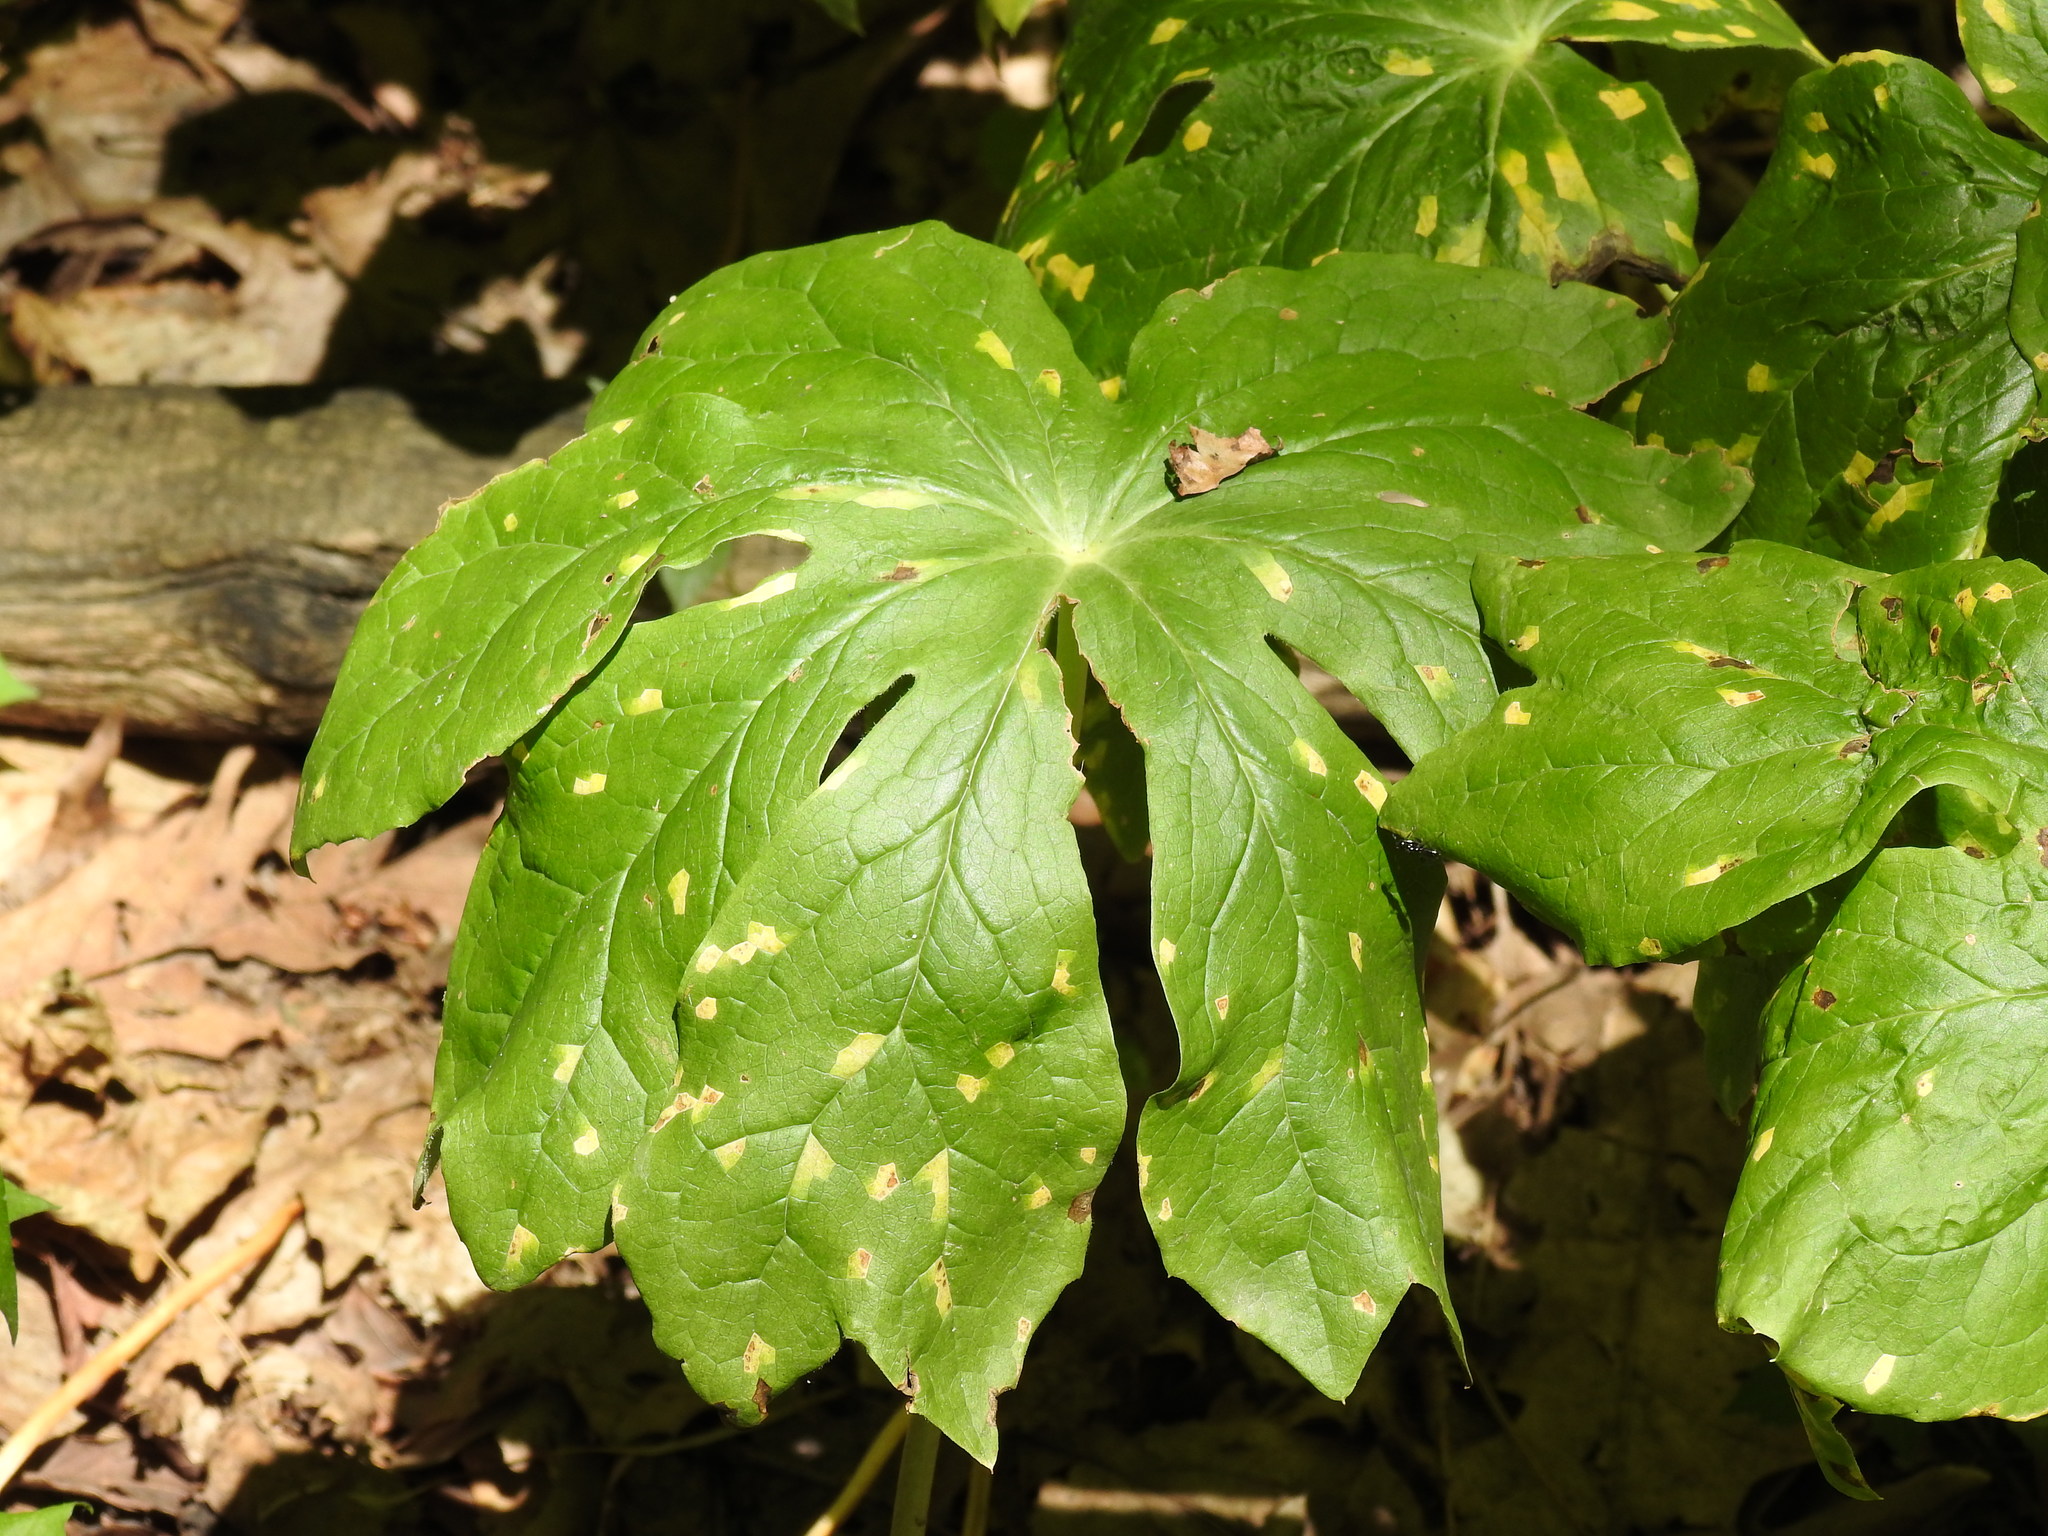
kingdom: Fungi
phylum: Basidiomycota
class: Pucciniomycetes
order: Pucciniales
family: Pucciniaceae
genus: Puccinia
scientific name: Puccinia podophylli
